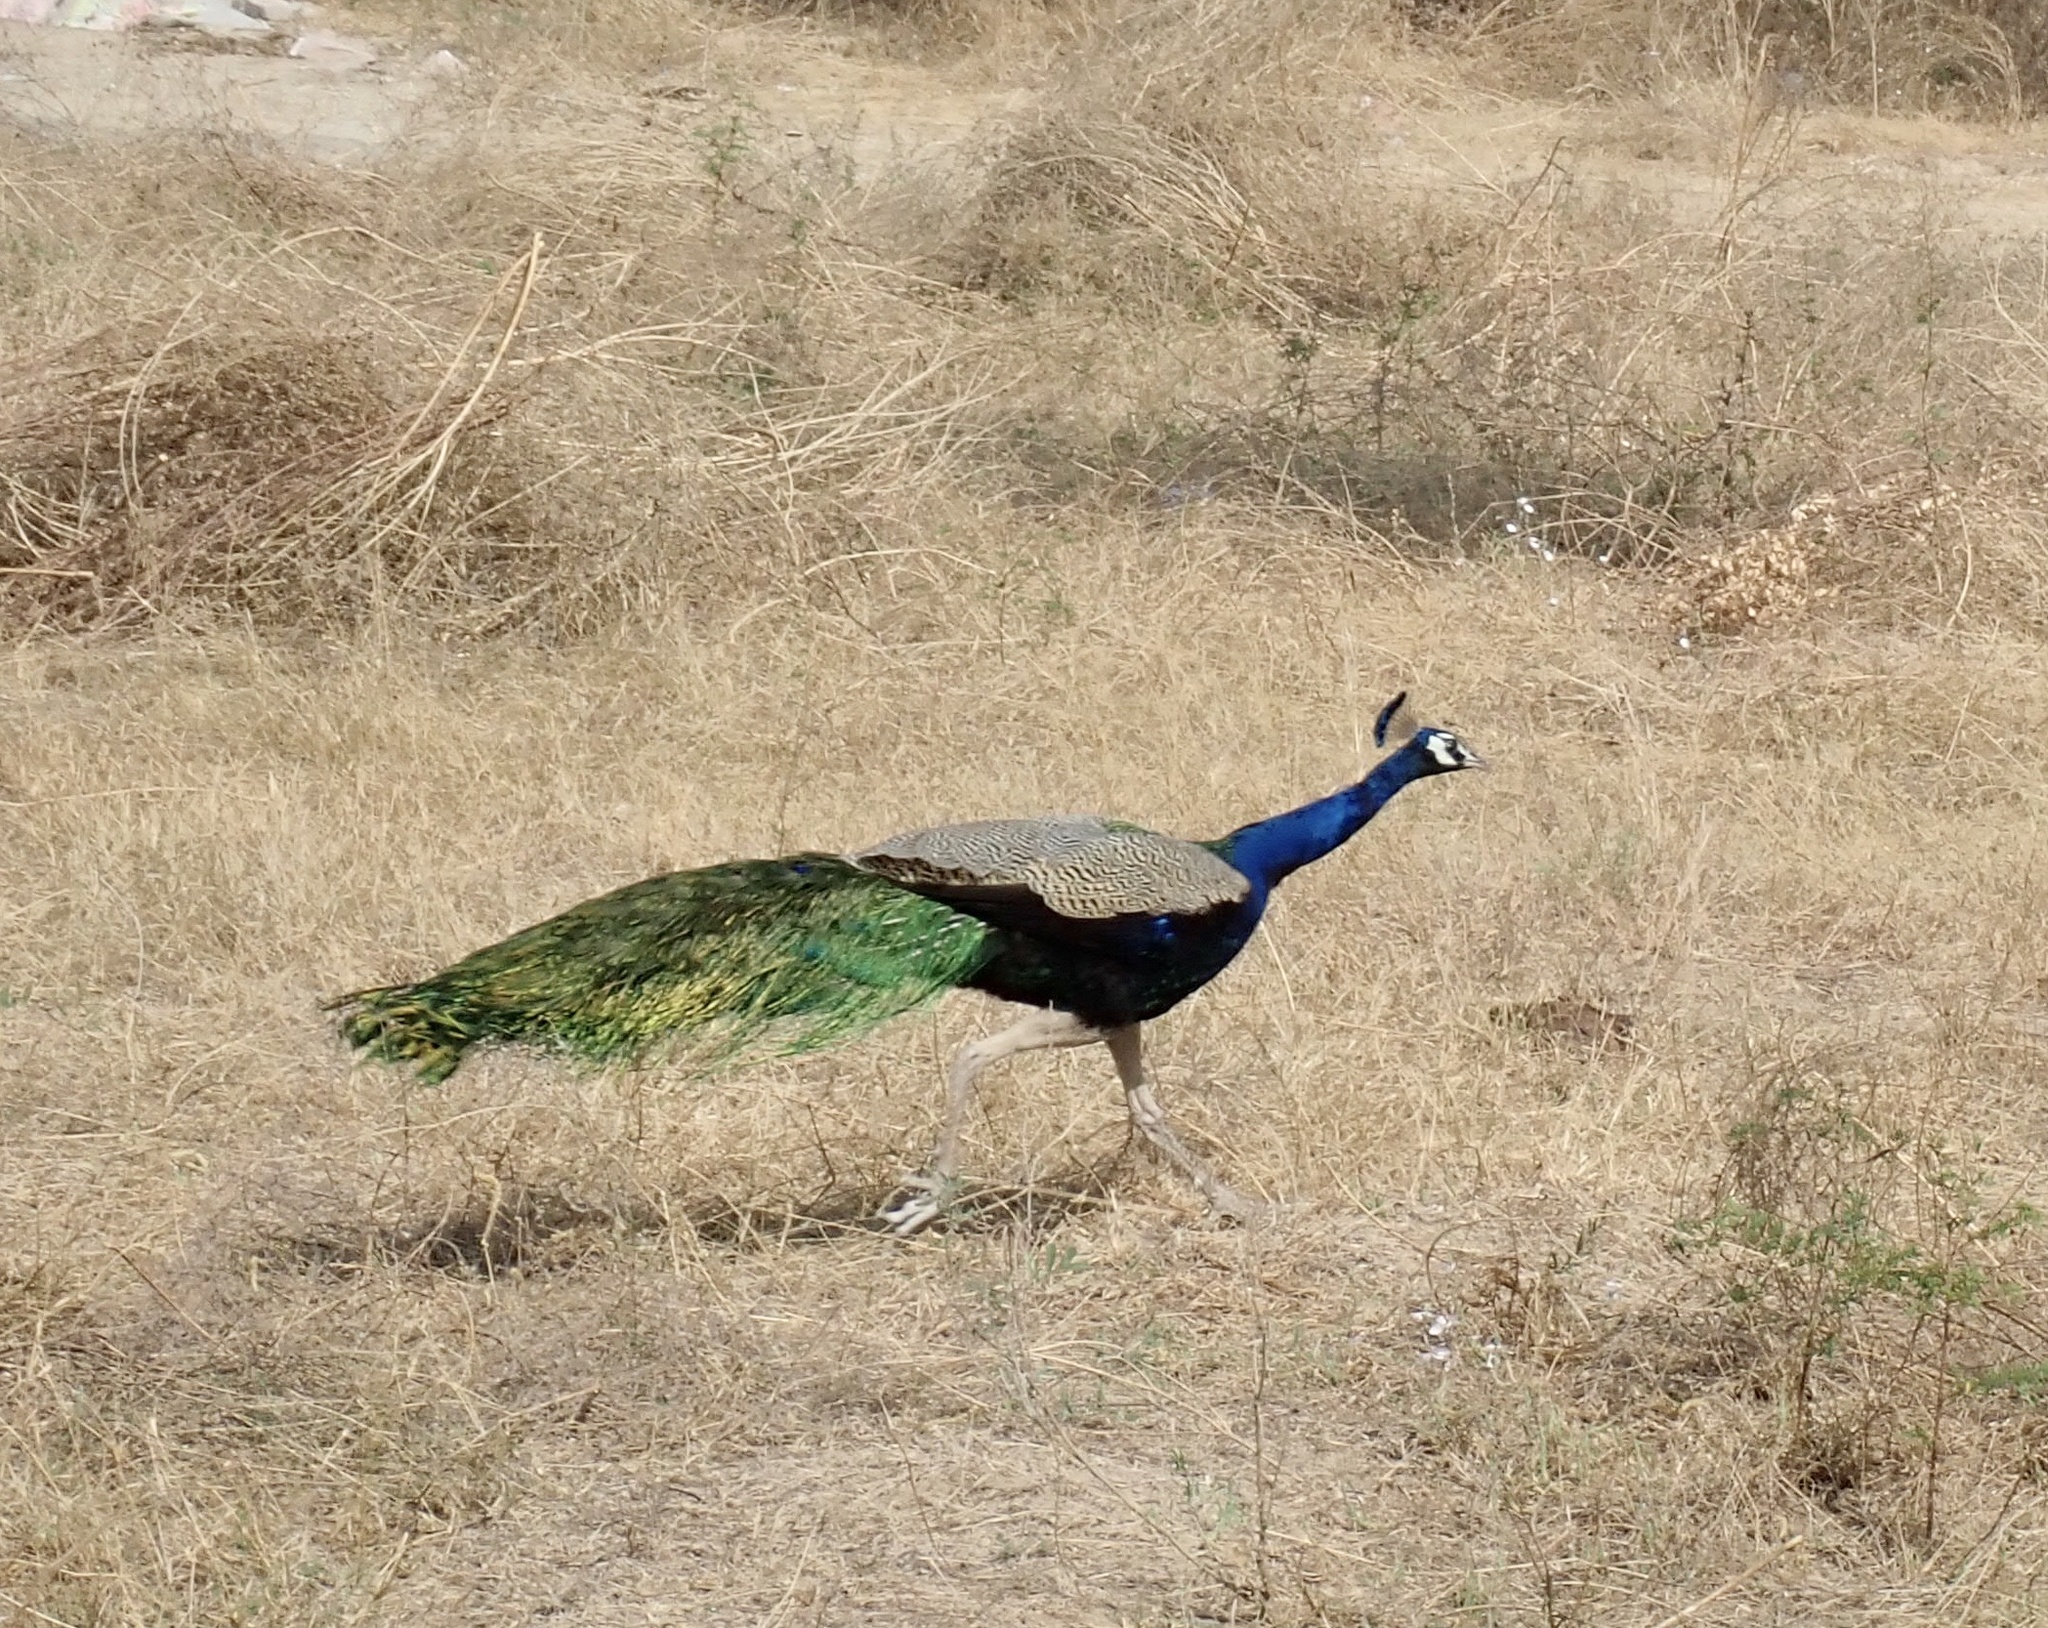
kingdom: Animalia
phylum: Chordata
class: Aves
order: Galliformes
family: Phasianidae
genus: Pavo
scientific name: Pavo cristatus
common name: Indian peafowl
